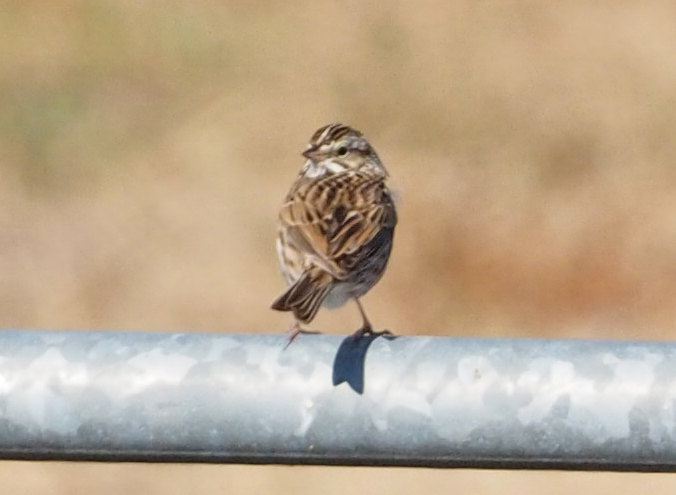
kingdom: Animalia
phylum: Chordata
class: Aves
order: Passeriformes
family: Passerellidae
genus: Passerculus
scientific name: Passerculus sandwichensis
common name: Savannah sparrow
